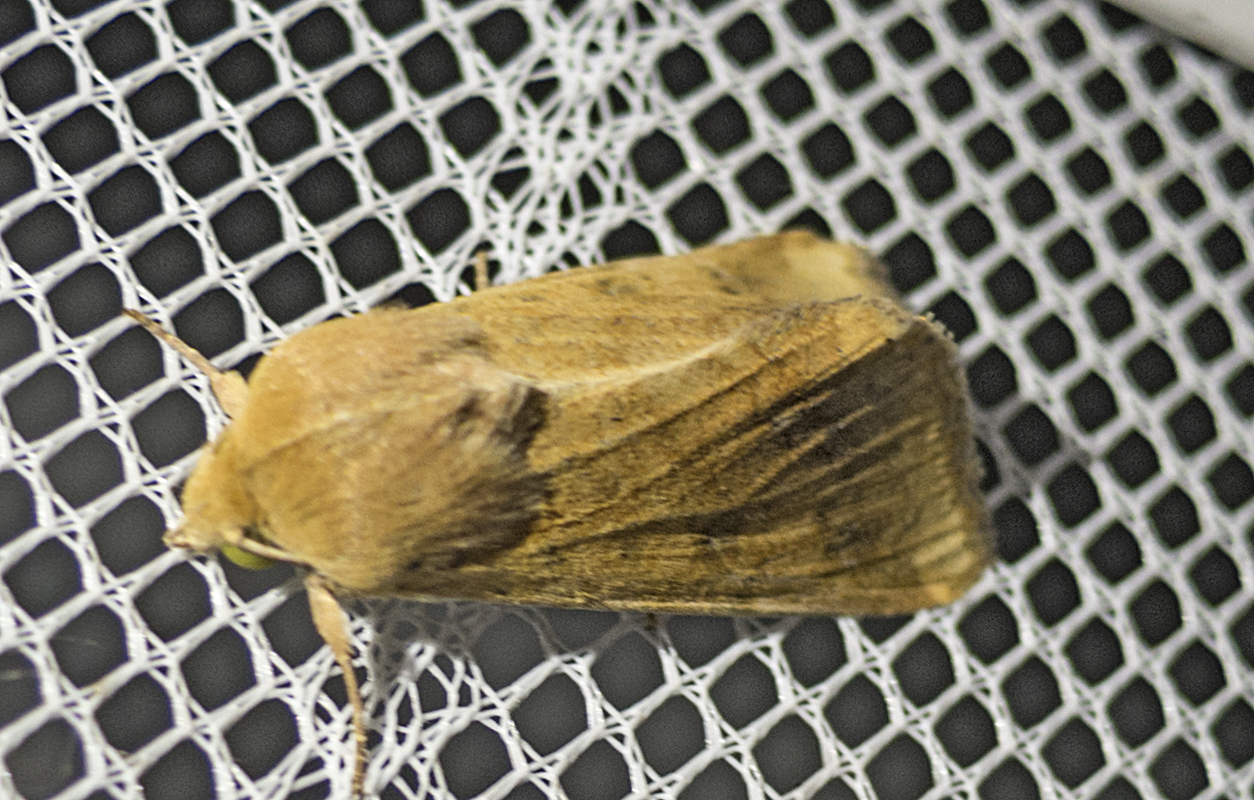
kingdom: Animalia
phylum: Arthropoda
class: Insecta
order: Lepidoptera
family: Noctuidae
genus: Helicoverpa
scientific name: Helicoverpa armigera
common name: Cotton bollworm
